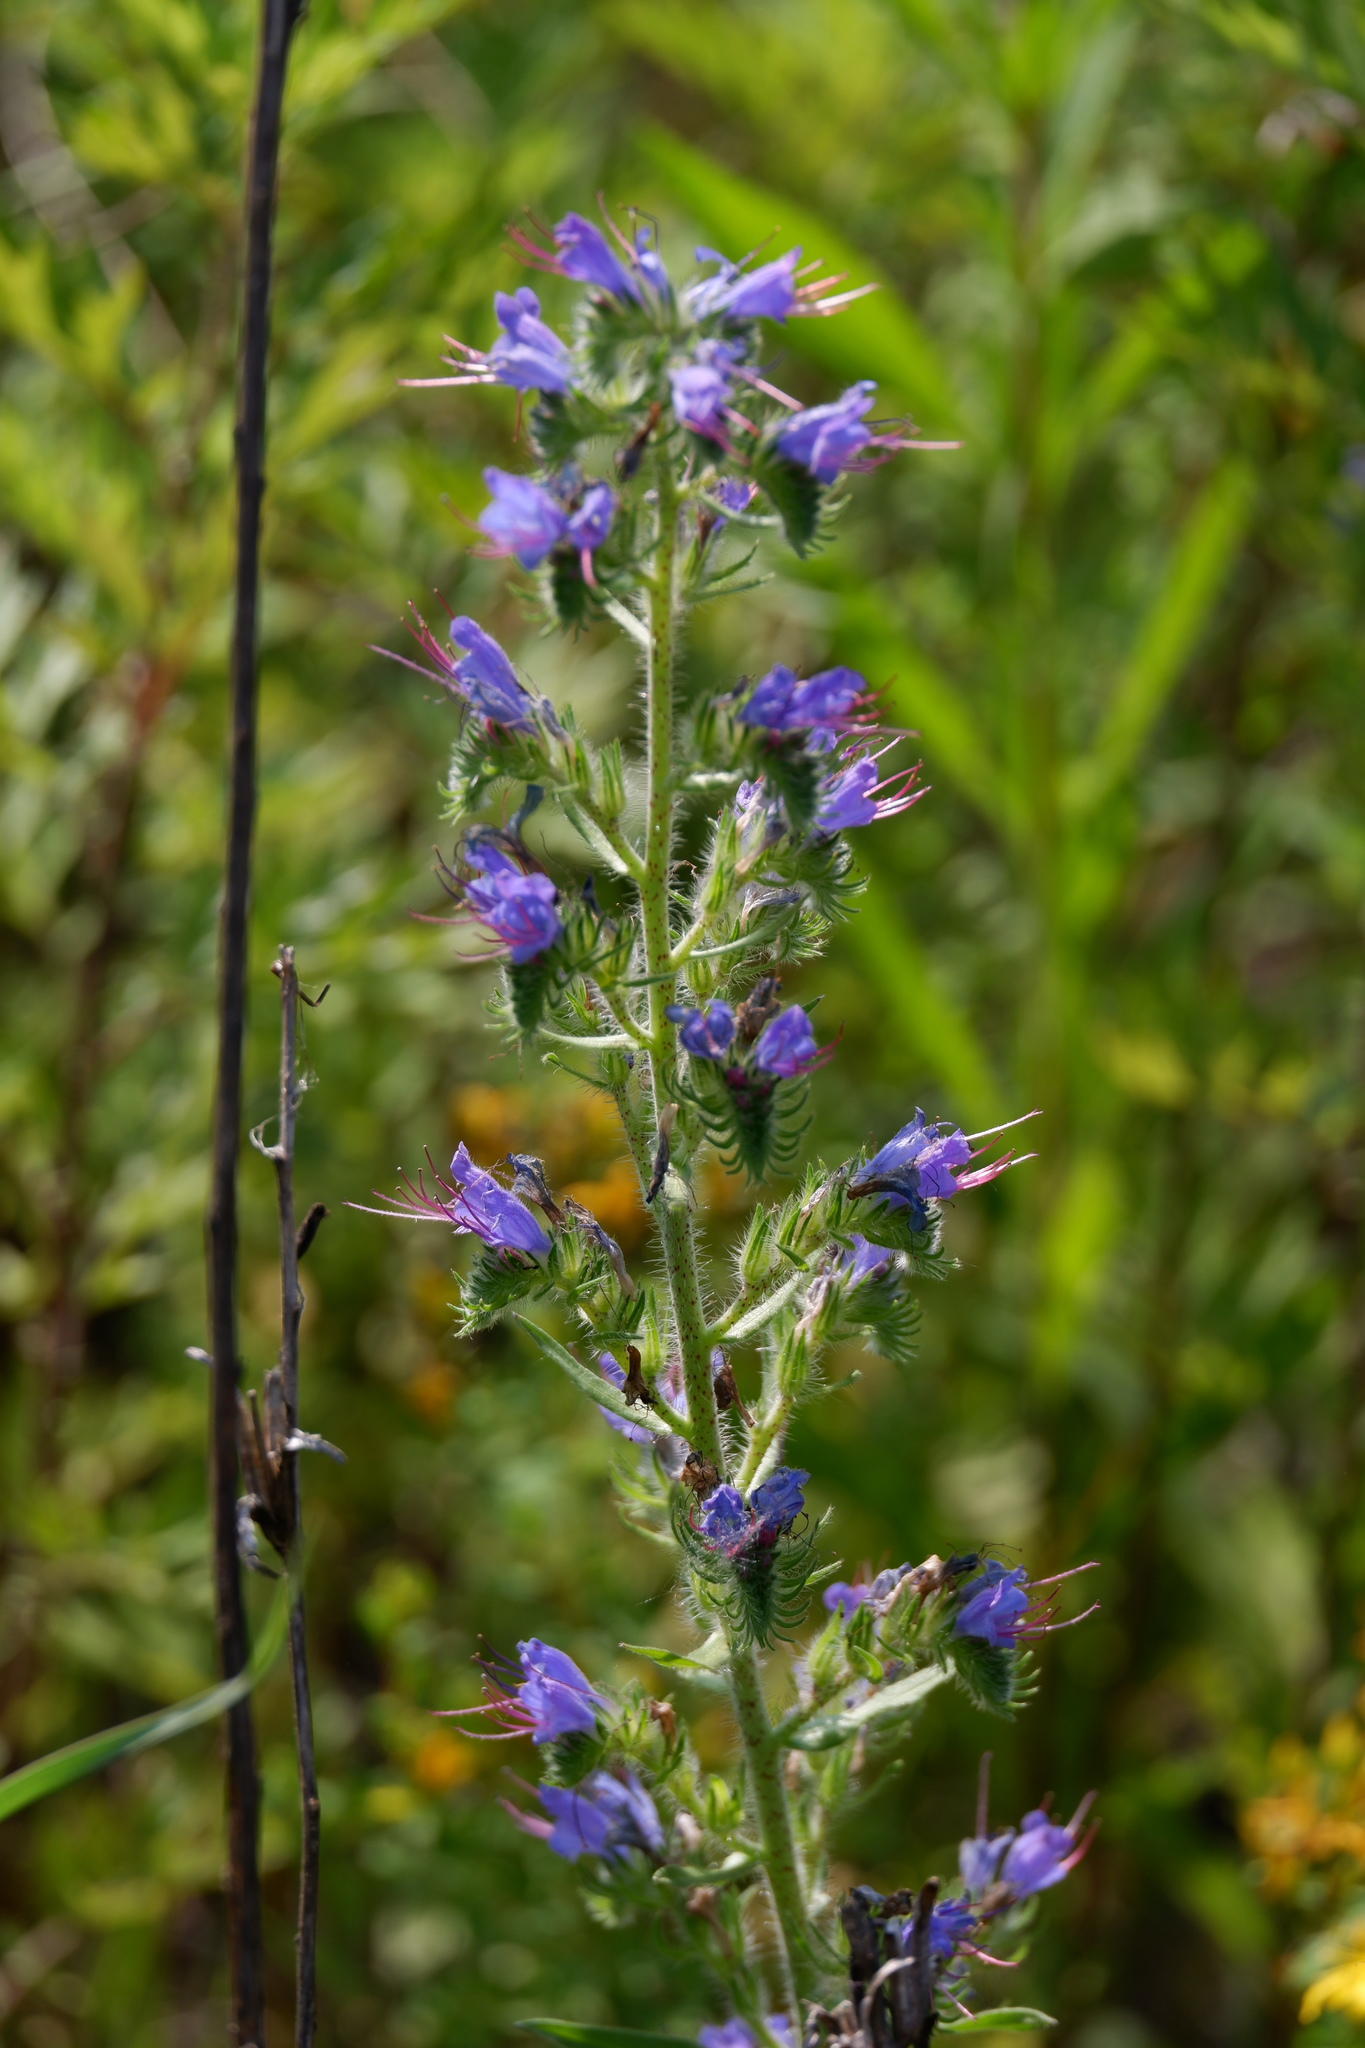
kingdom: Plantae
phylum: Tracheophyta
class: Magnoliopsida
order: Boraginales
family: Boraginaceae
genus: Echium
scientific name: Echium vulgare
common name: Common viper's bugloss
